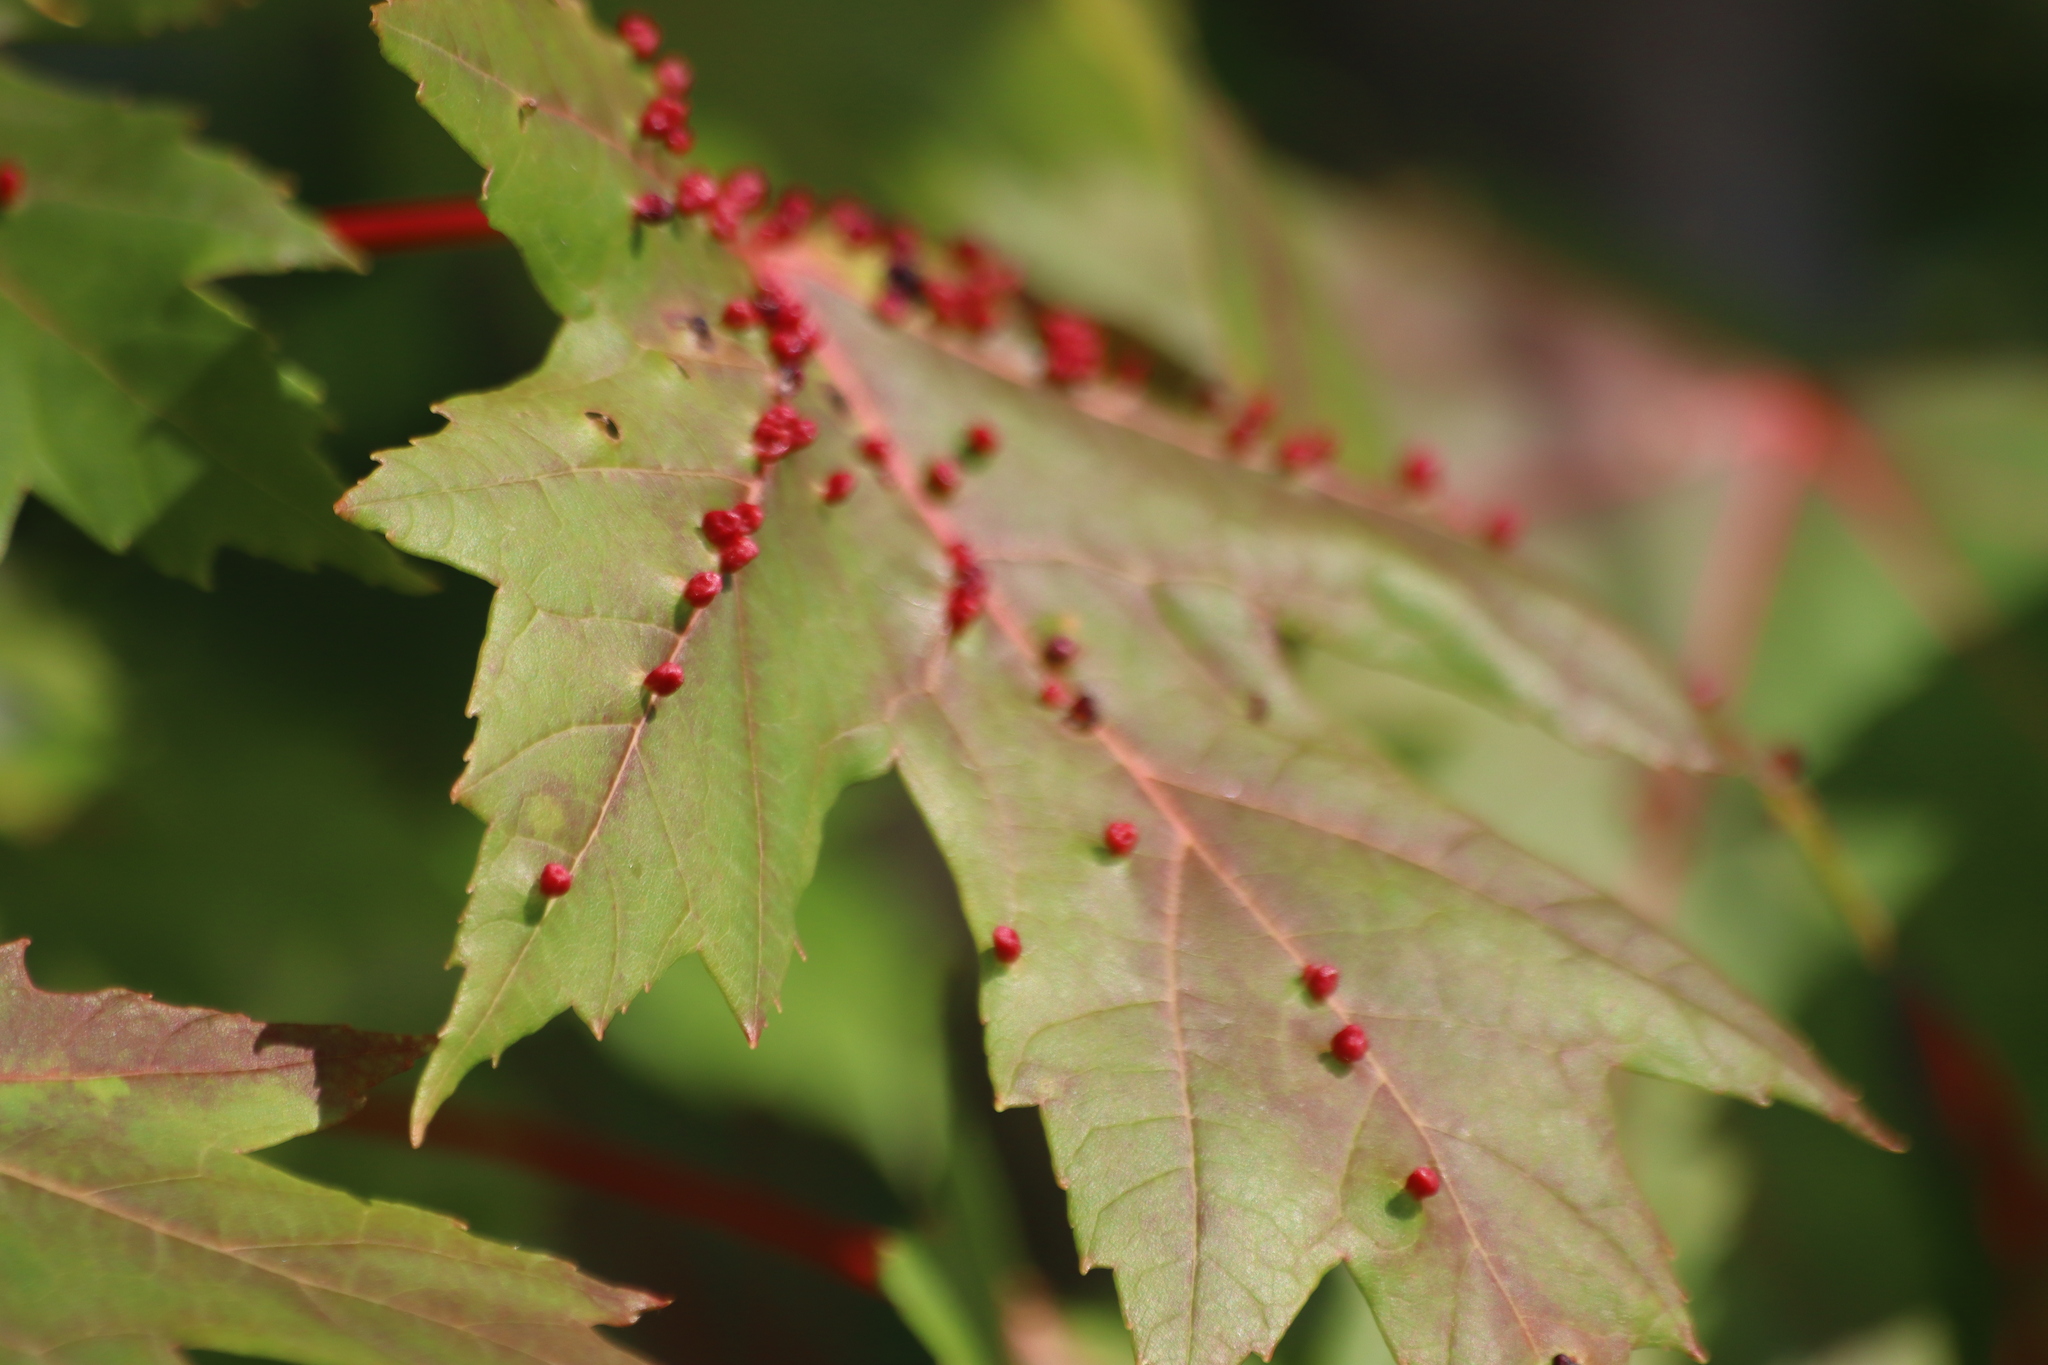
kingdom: Animalia
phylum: Arthropoda
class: Arachnida
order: Trombidiformes
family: Eriophyidae
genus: Vasates
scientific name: Vasates quadripedes
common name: Maple bladder gall mite
